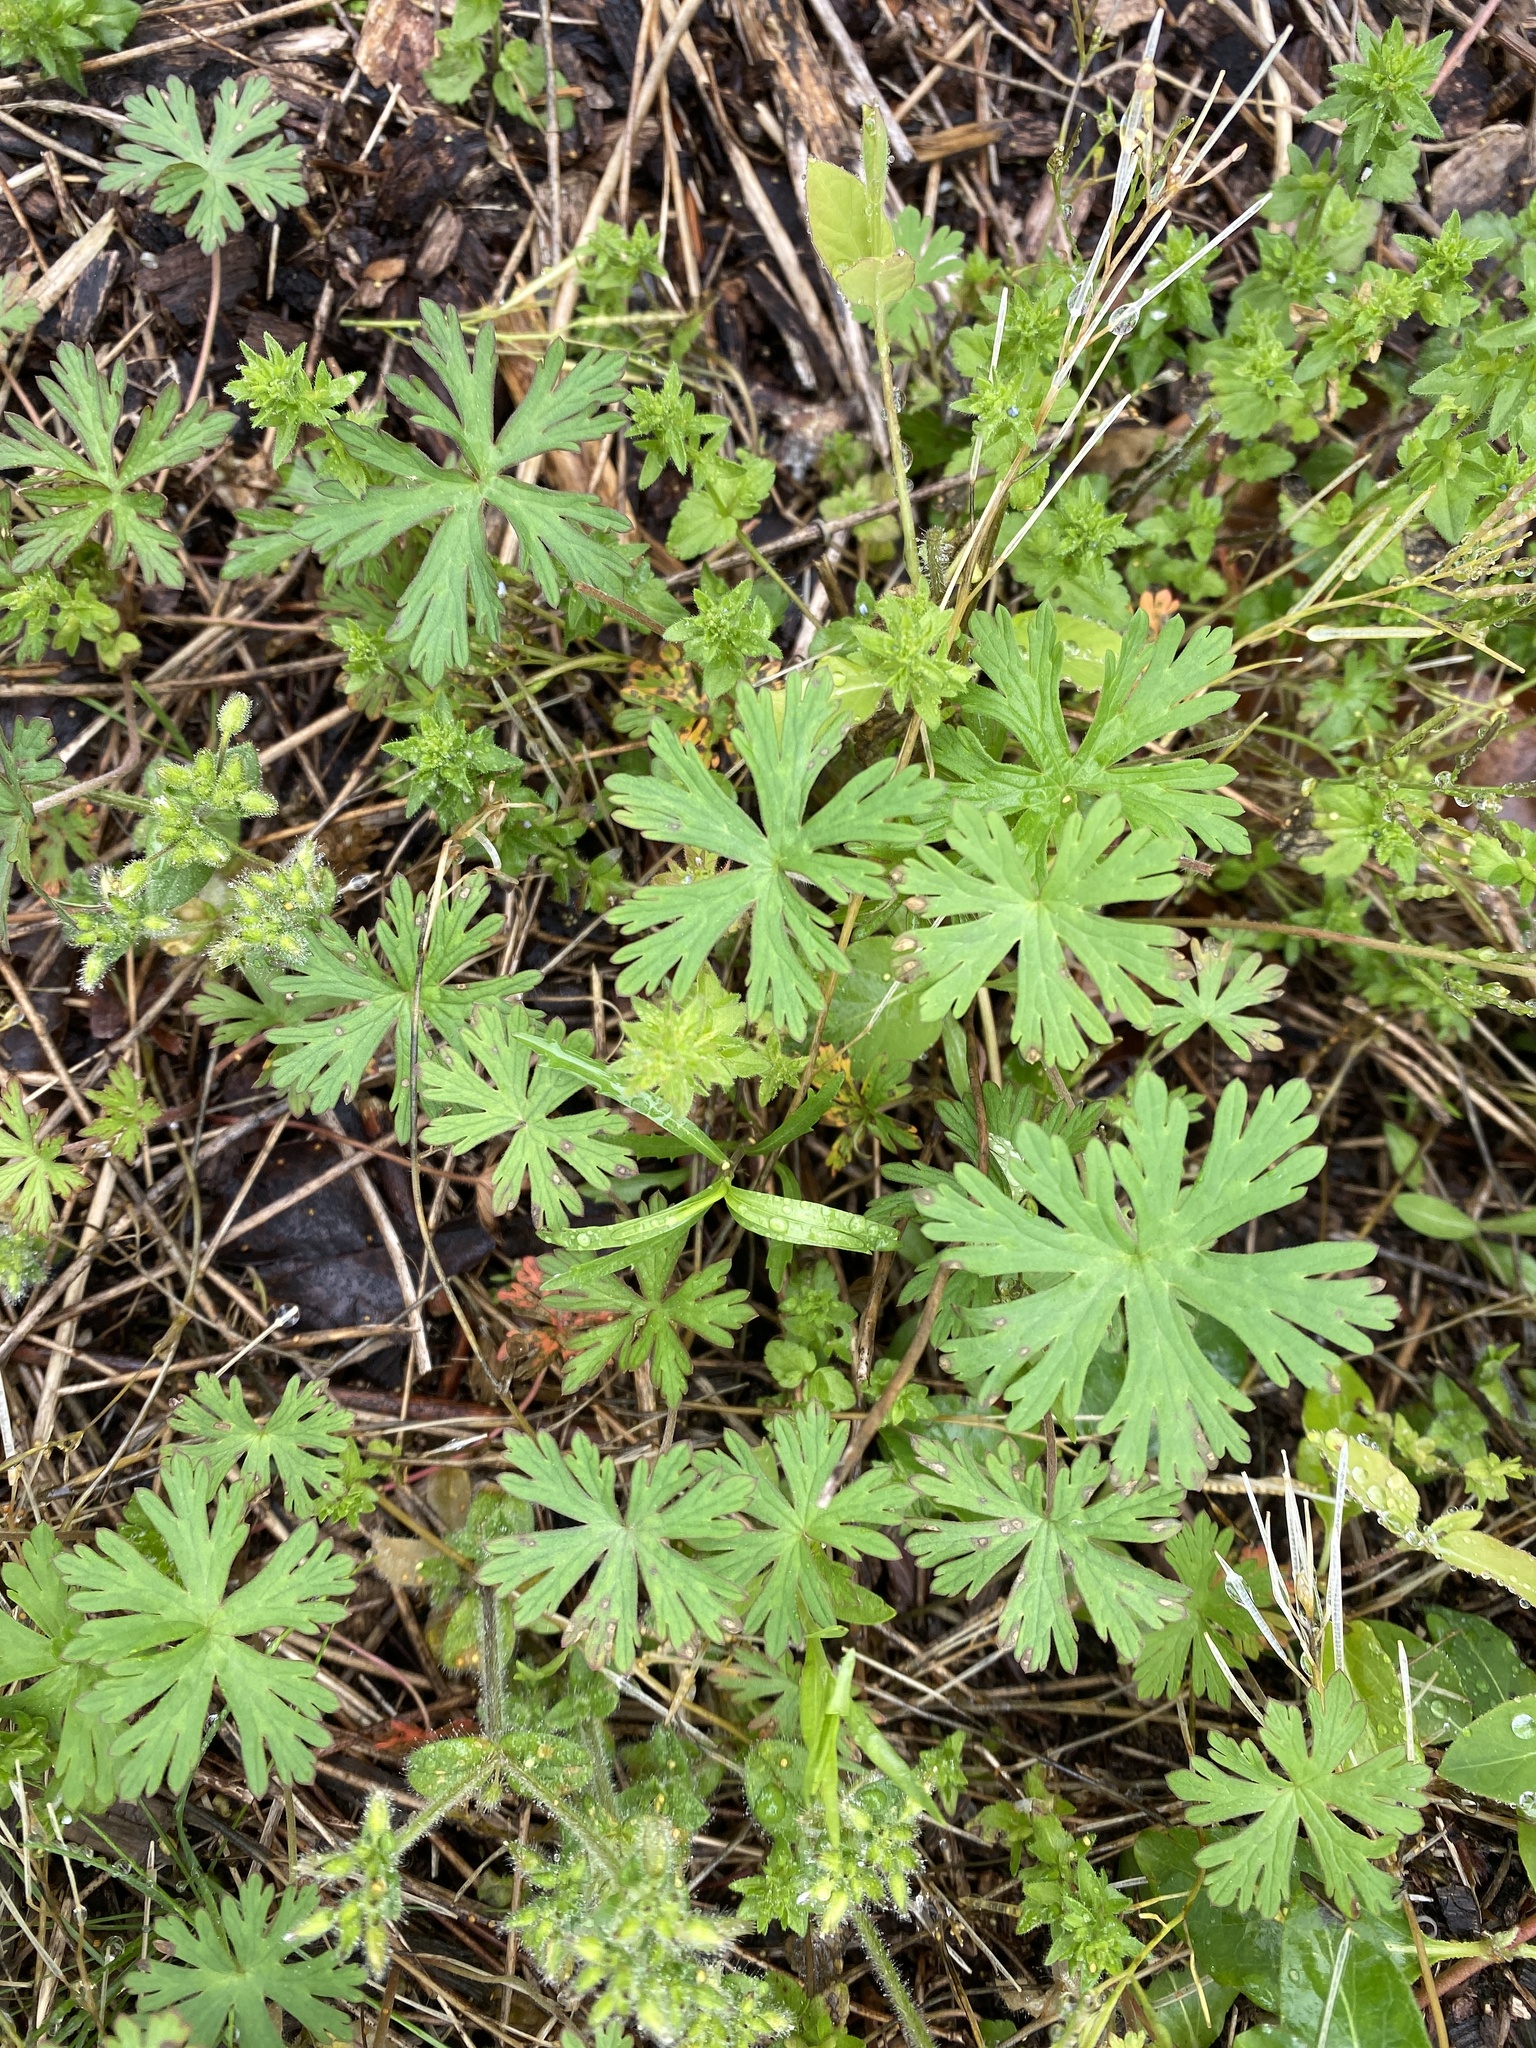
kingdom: Plantae
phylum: Tracheophyta
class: Magnoliopsida
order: Geraniales
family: Geraniaceae
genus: Geranium
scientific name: Geranium carolinianum
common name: Carolina crane's-bill
